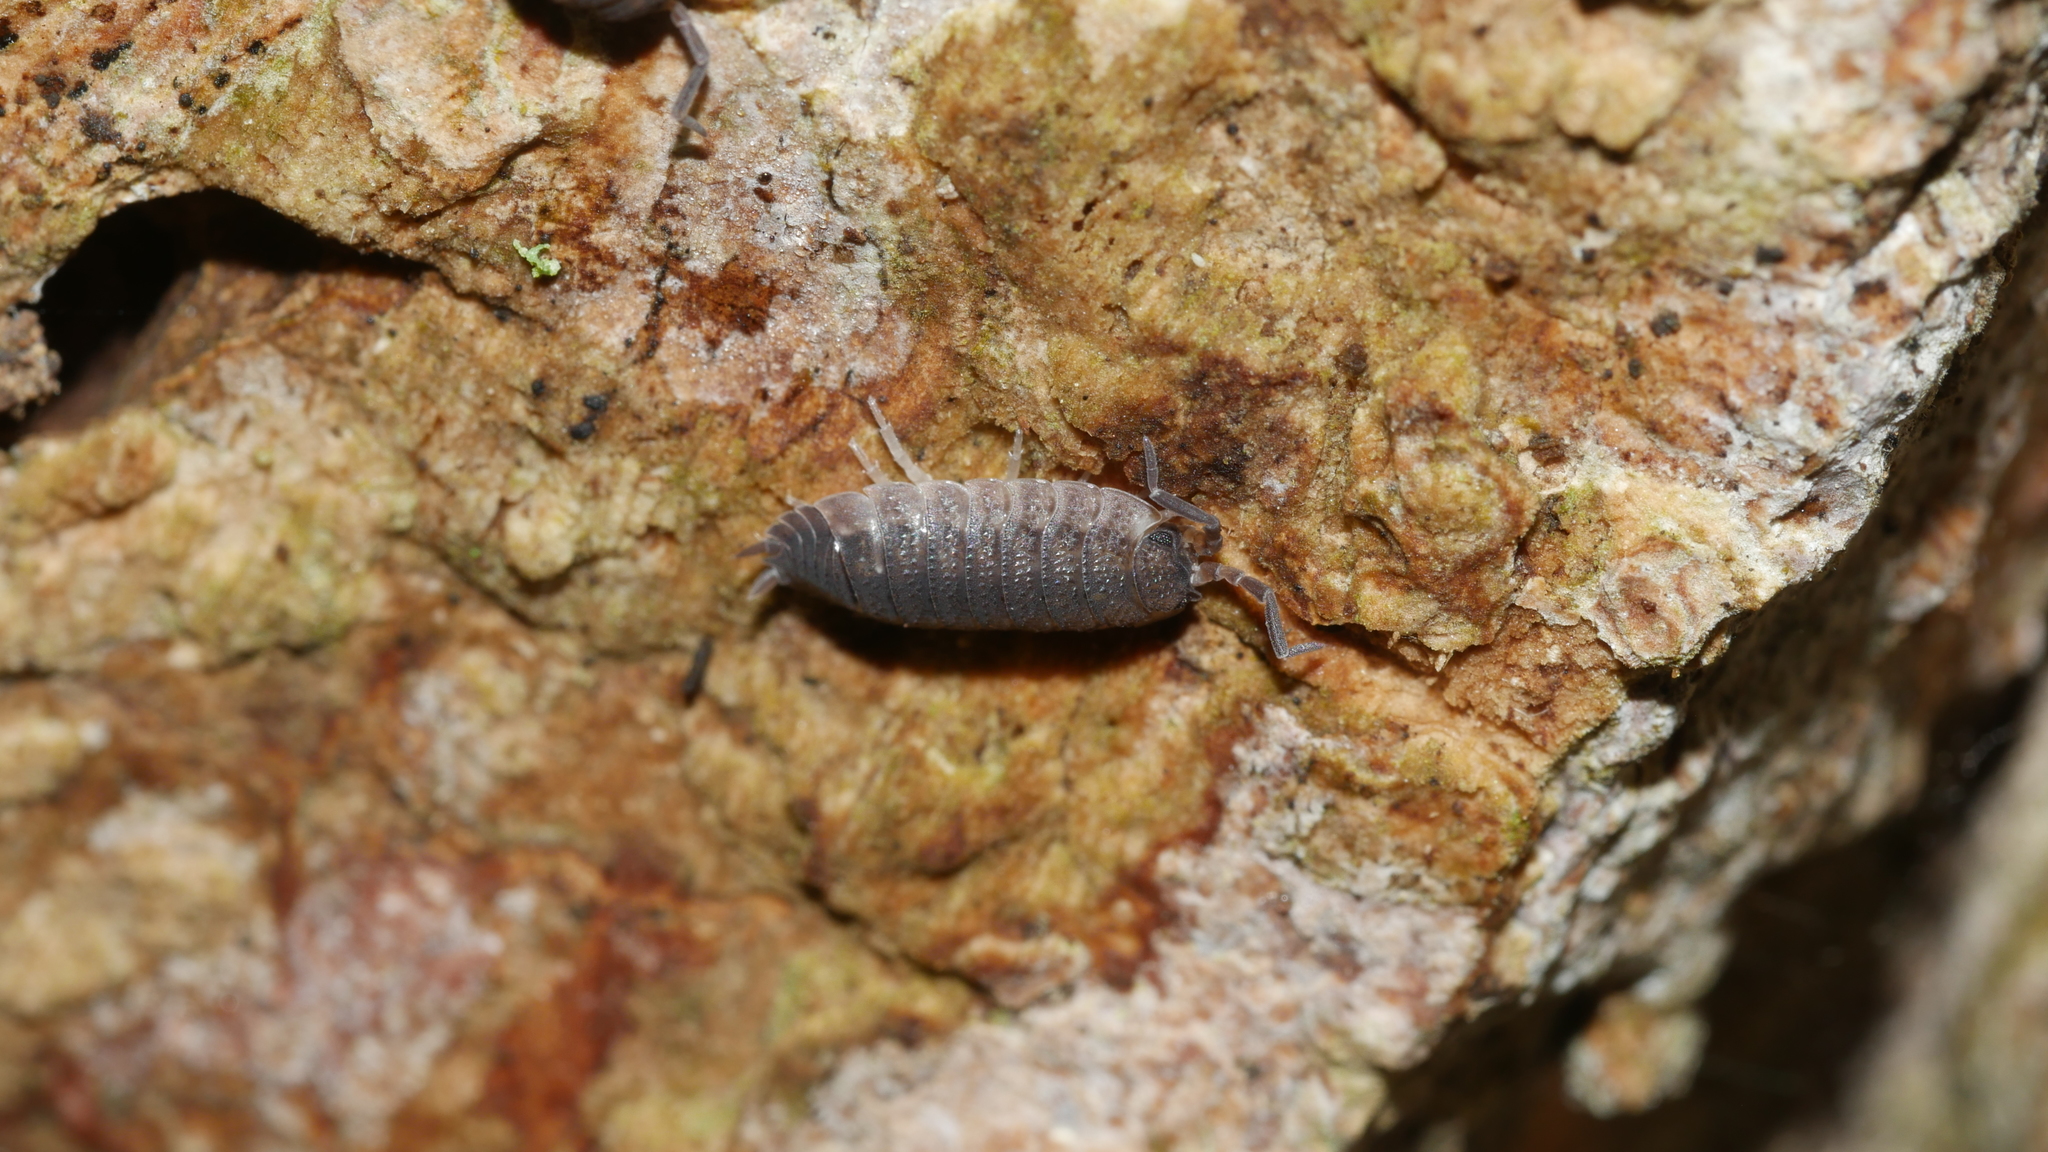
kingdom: Animalia
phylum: Arthropoda
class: Malacostraca
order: Isopoda
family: Porcellionidae
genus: Porcellio
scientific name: Porcellio scaber
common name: Common rough woodlouse
